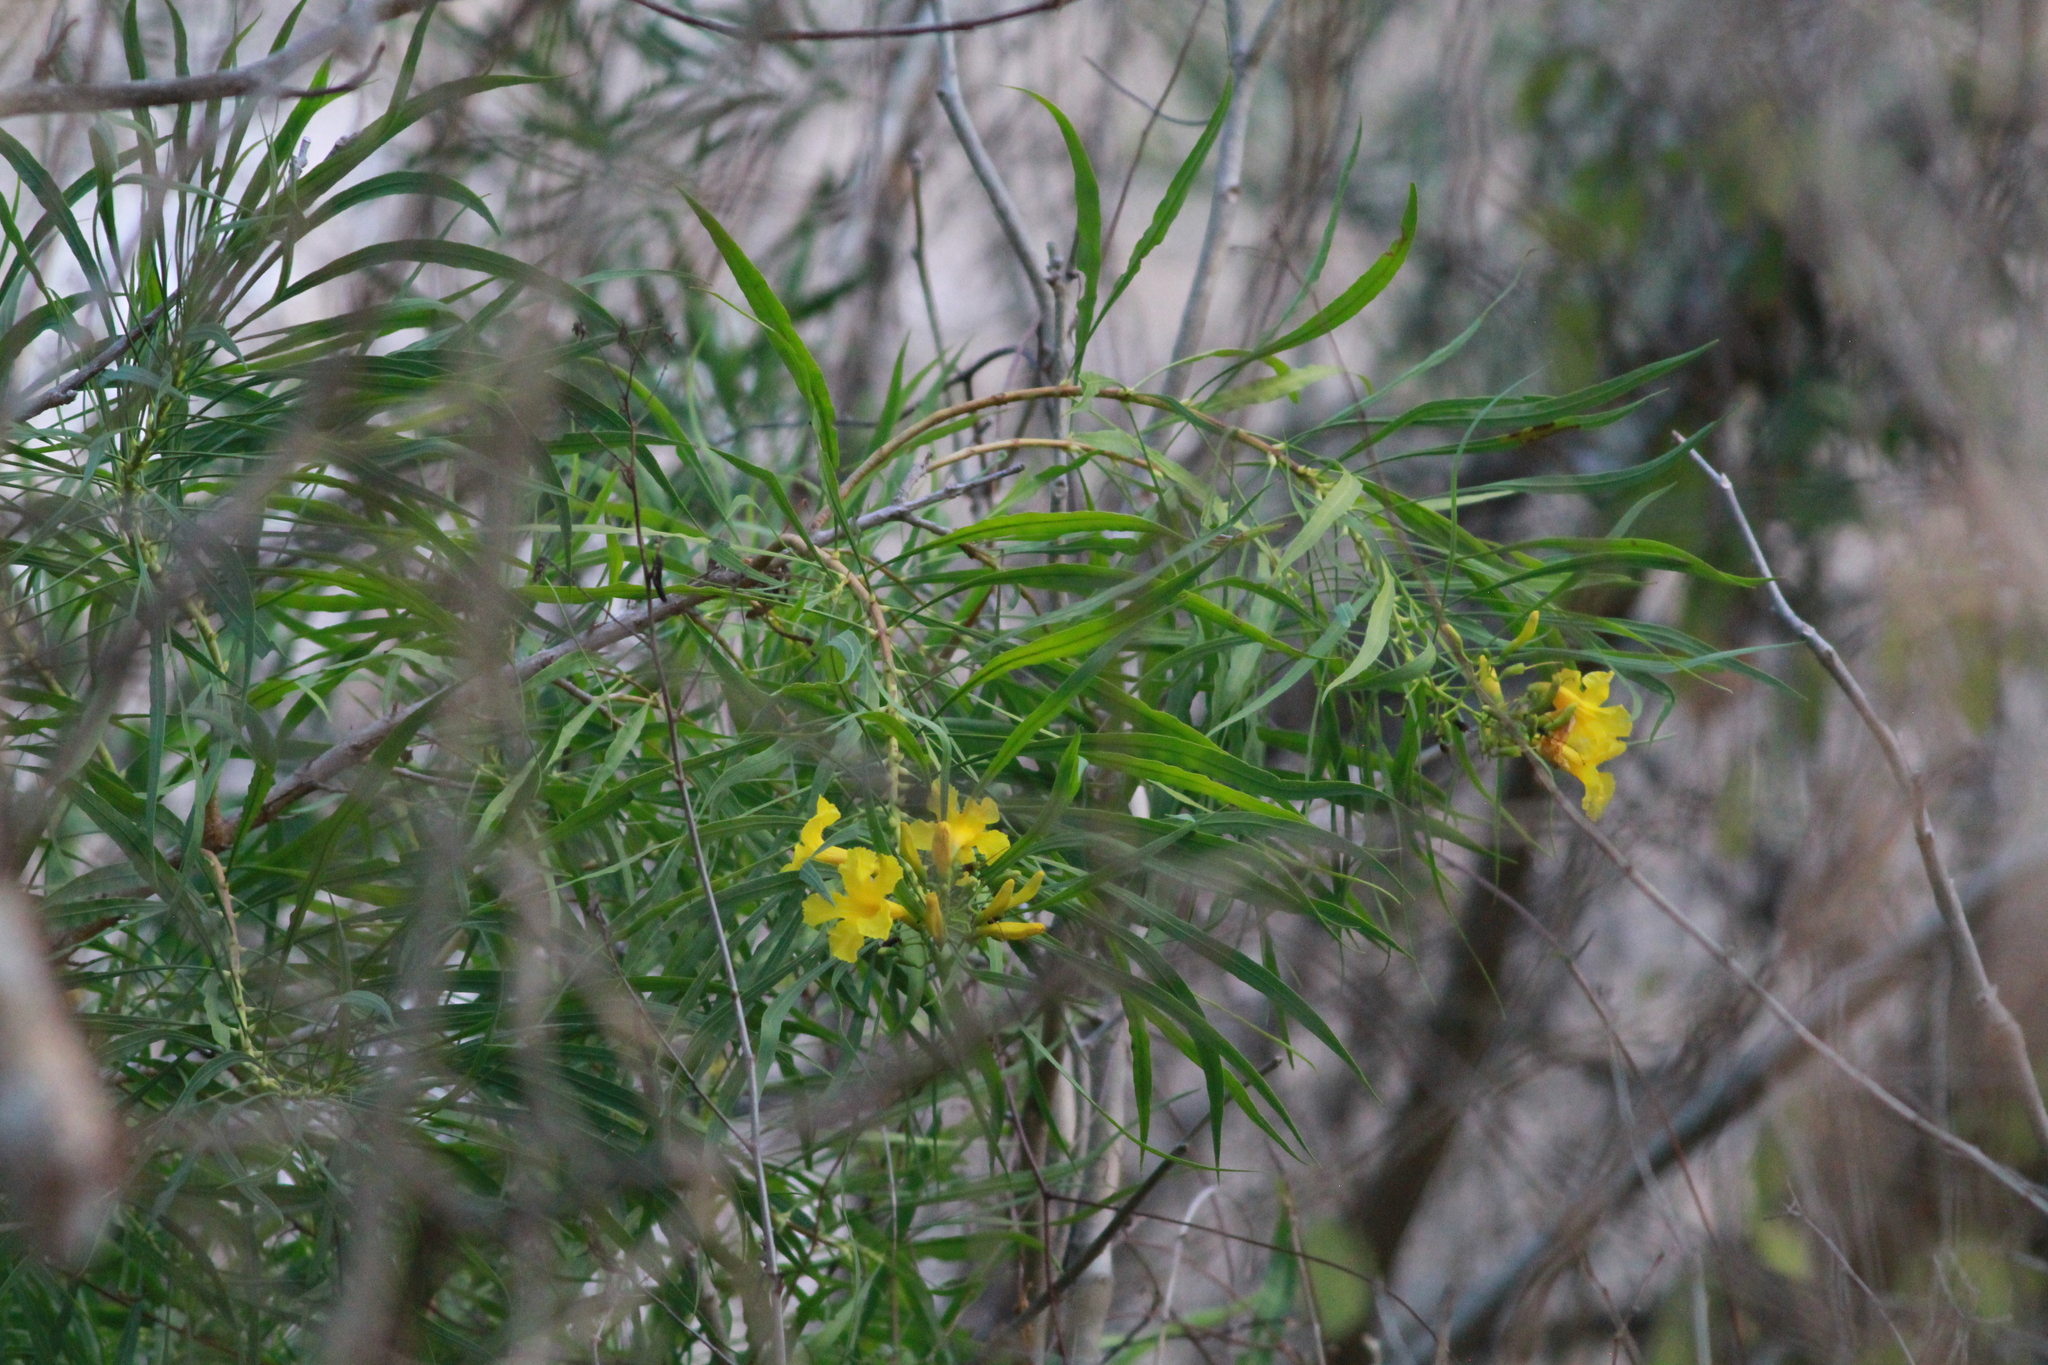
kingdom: Plantae
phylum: Tracheophyta
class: Magnoliopsida
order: Lamiales
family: Bignoniaceae
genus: Astianthus
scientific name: Astianthus viminalis
